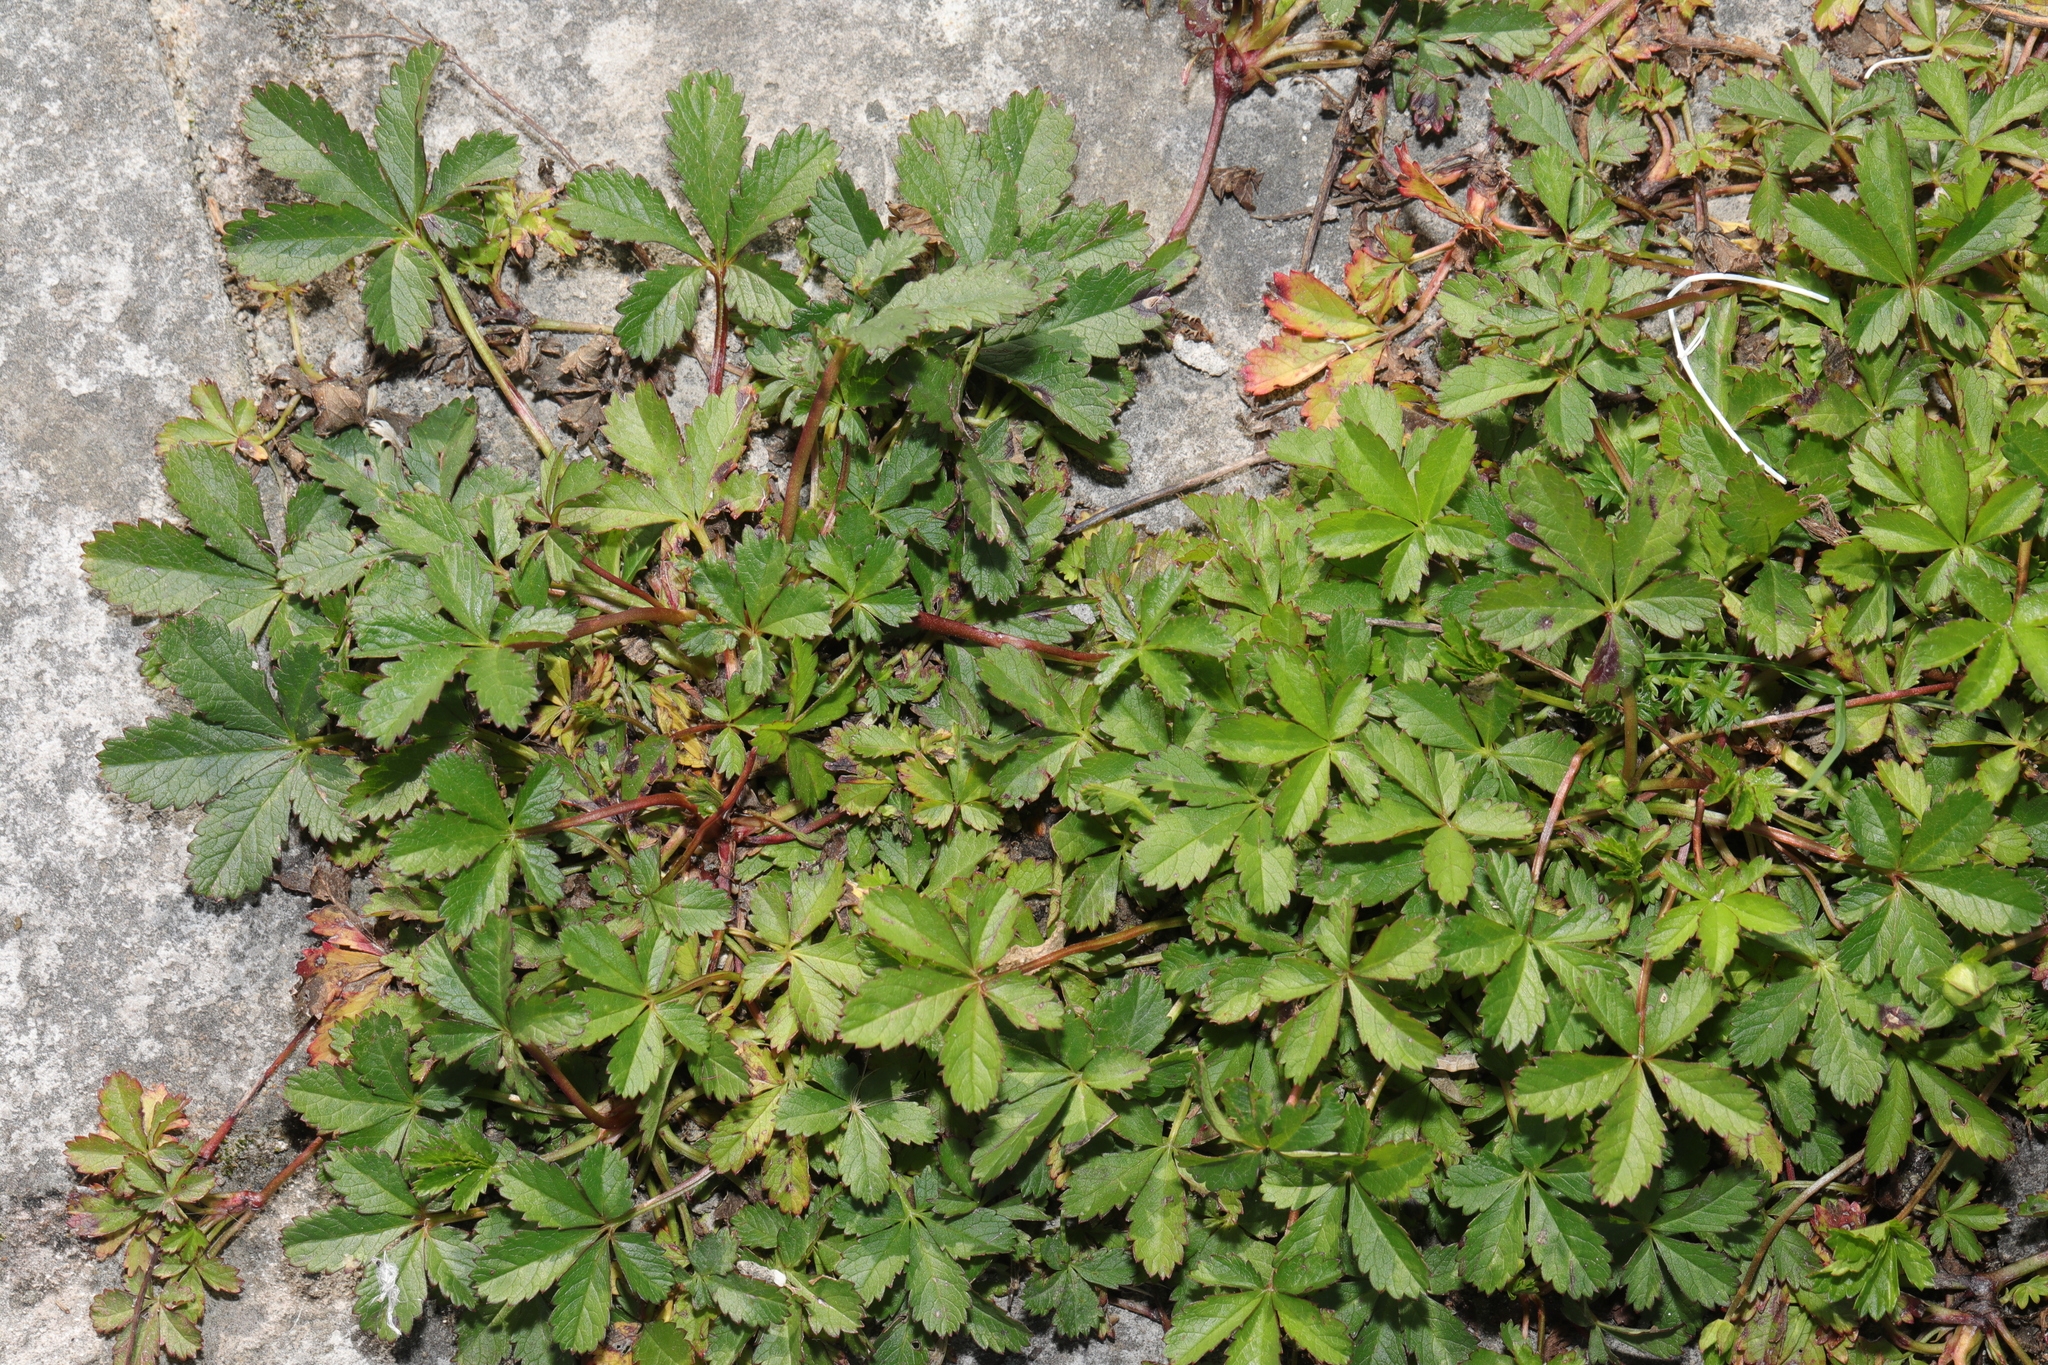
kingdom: Plantae
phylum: Tracheophyta
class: Magnoliopsida
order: Rosales
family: Rosaceae
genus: Potentilla
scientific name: Potentilla reptans
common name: Creeping cinquefoil
